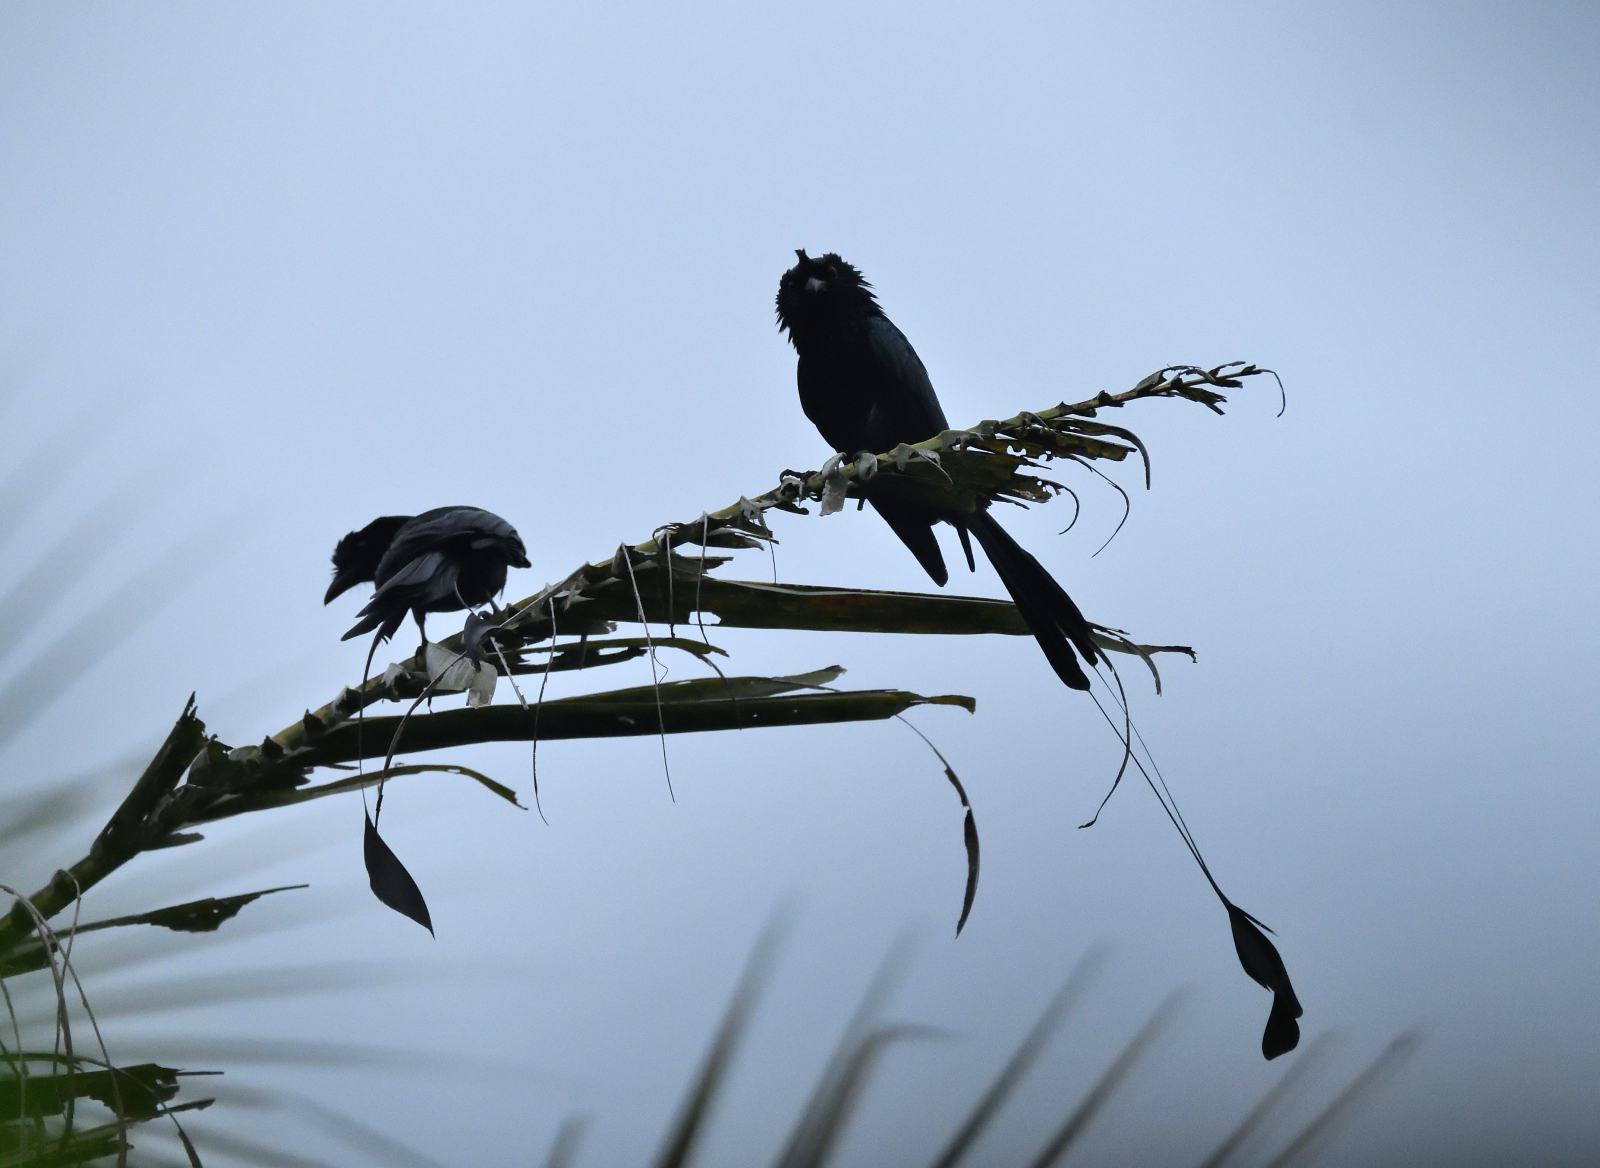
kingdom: Animalia
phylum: Chordata
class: Aves
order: Passeriformes
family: Dicruridae
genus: Dicrurus
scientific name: Dicrurus paradiseus
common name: Greater racket-tailed drongo
